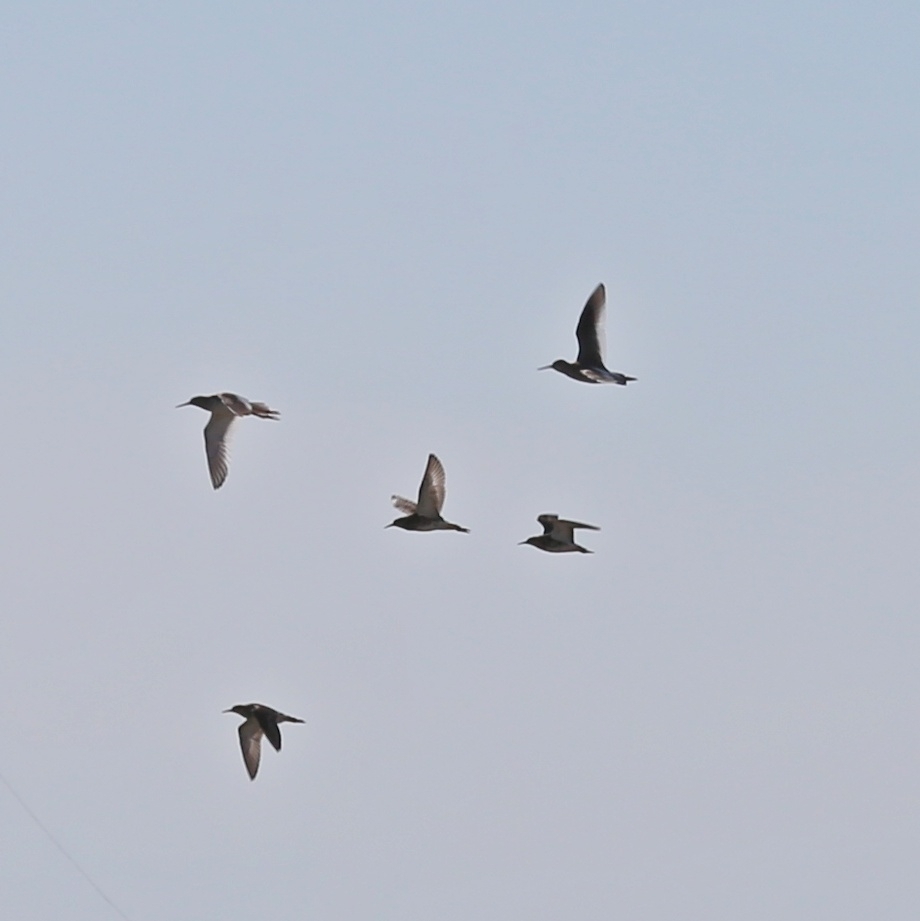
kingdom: Animalia
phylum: Chordata
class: Aves
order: Charadriiformes
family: Scolopacidae
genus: Calidris
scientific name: Calidris pugnax
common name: Ruff
